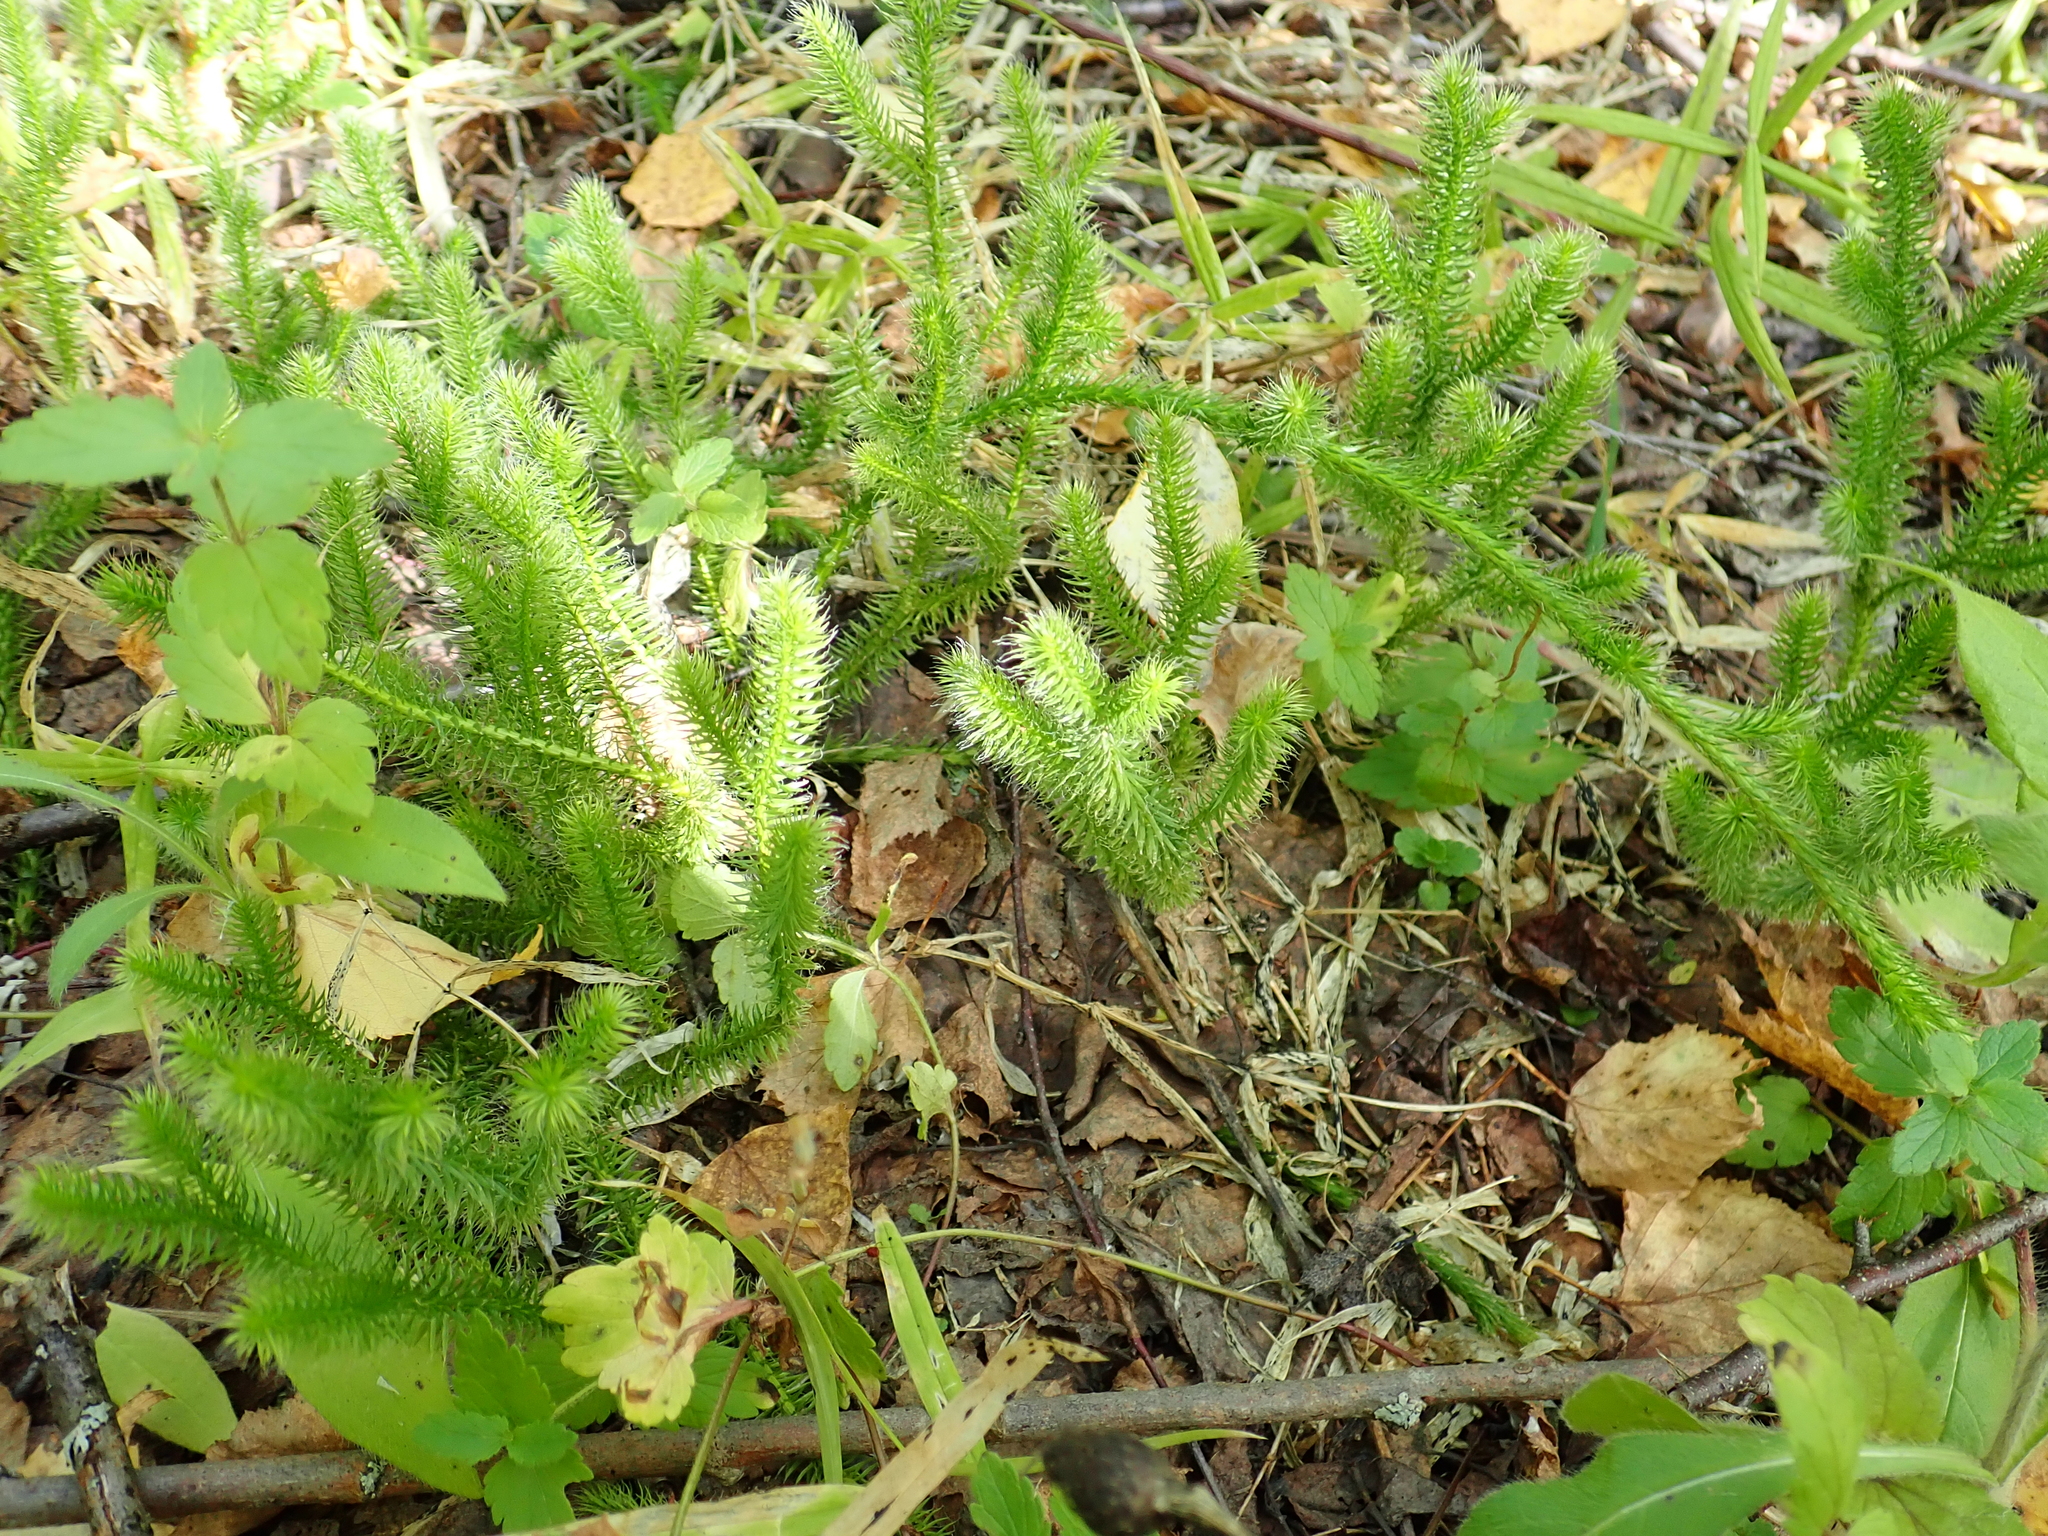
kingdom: Plantae
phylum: Tracheophyta
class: Lycopodiopsida
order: Lycopodiales
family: Lycopodiaceae
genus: Lycopodium
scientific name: Lycopodium clavatum
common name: Stag's-horn clubmoss
